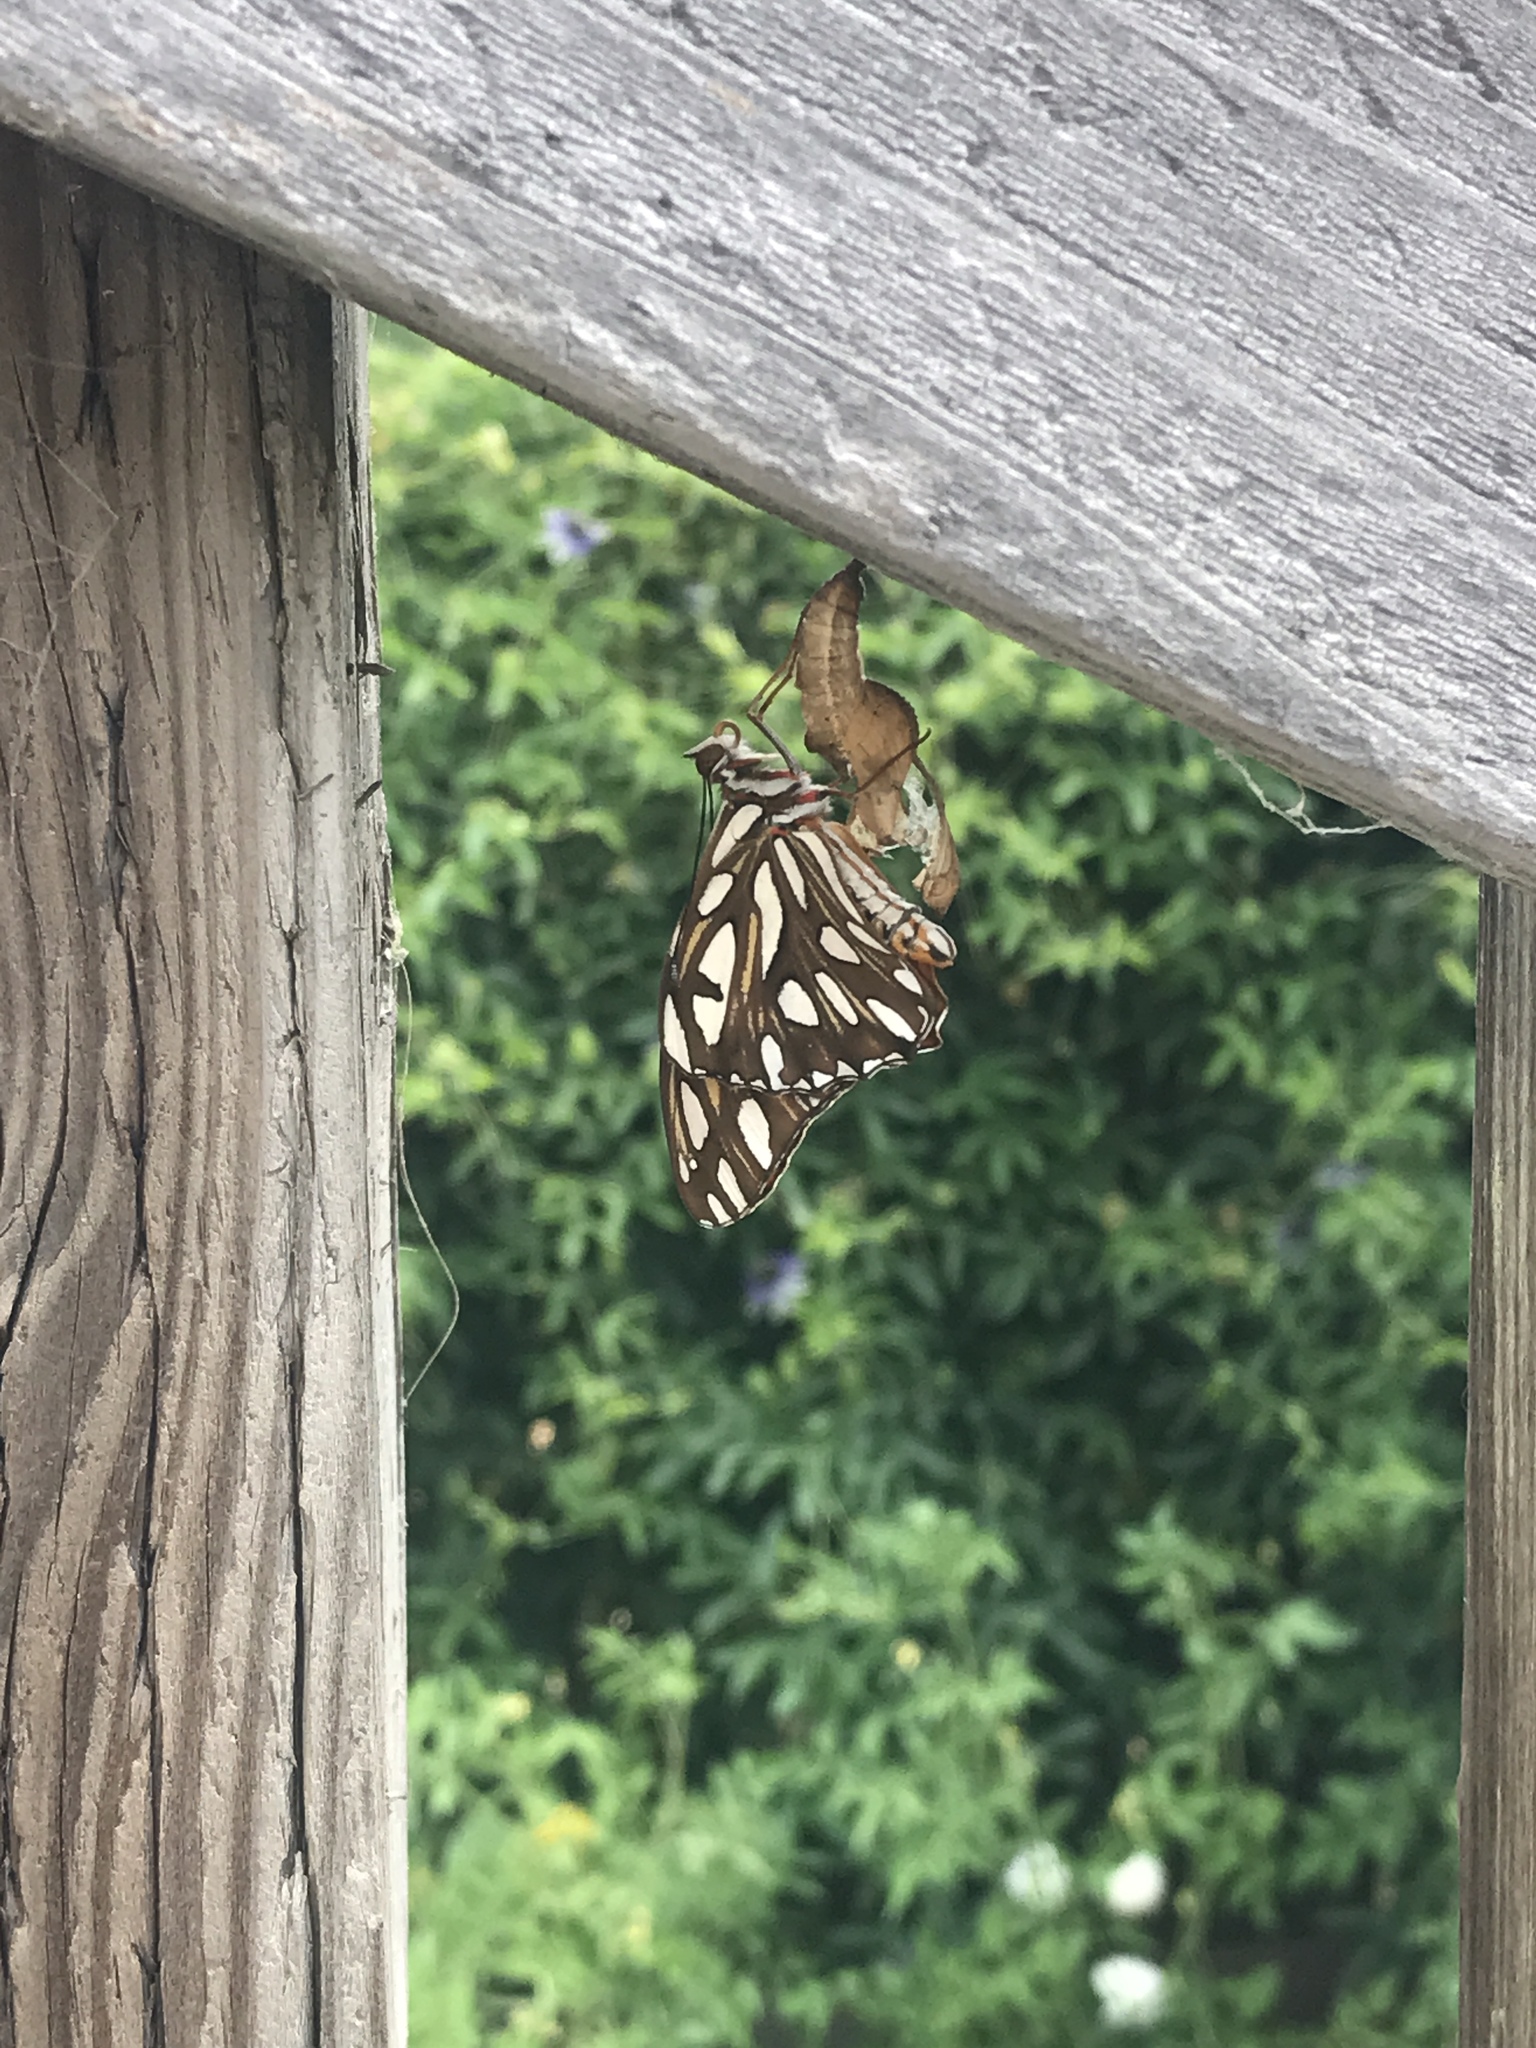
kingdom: Animalia
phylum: Arthropoda
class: Insecta
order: Lepidoptera
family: Nymphalidae
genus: Dione
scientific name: Dione vanillae
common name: Gulf fritillary
